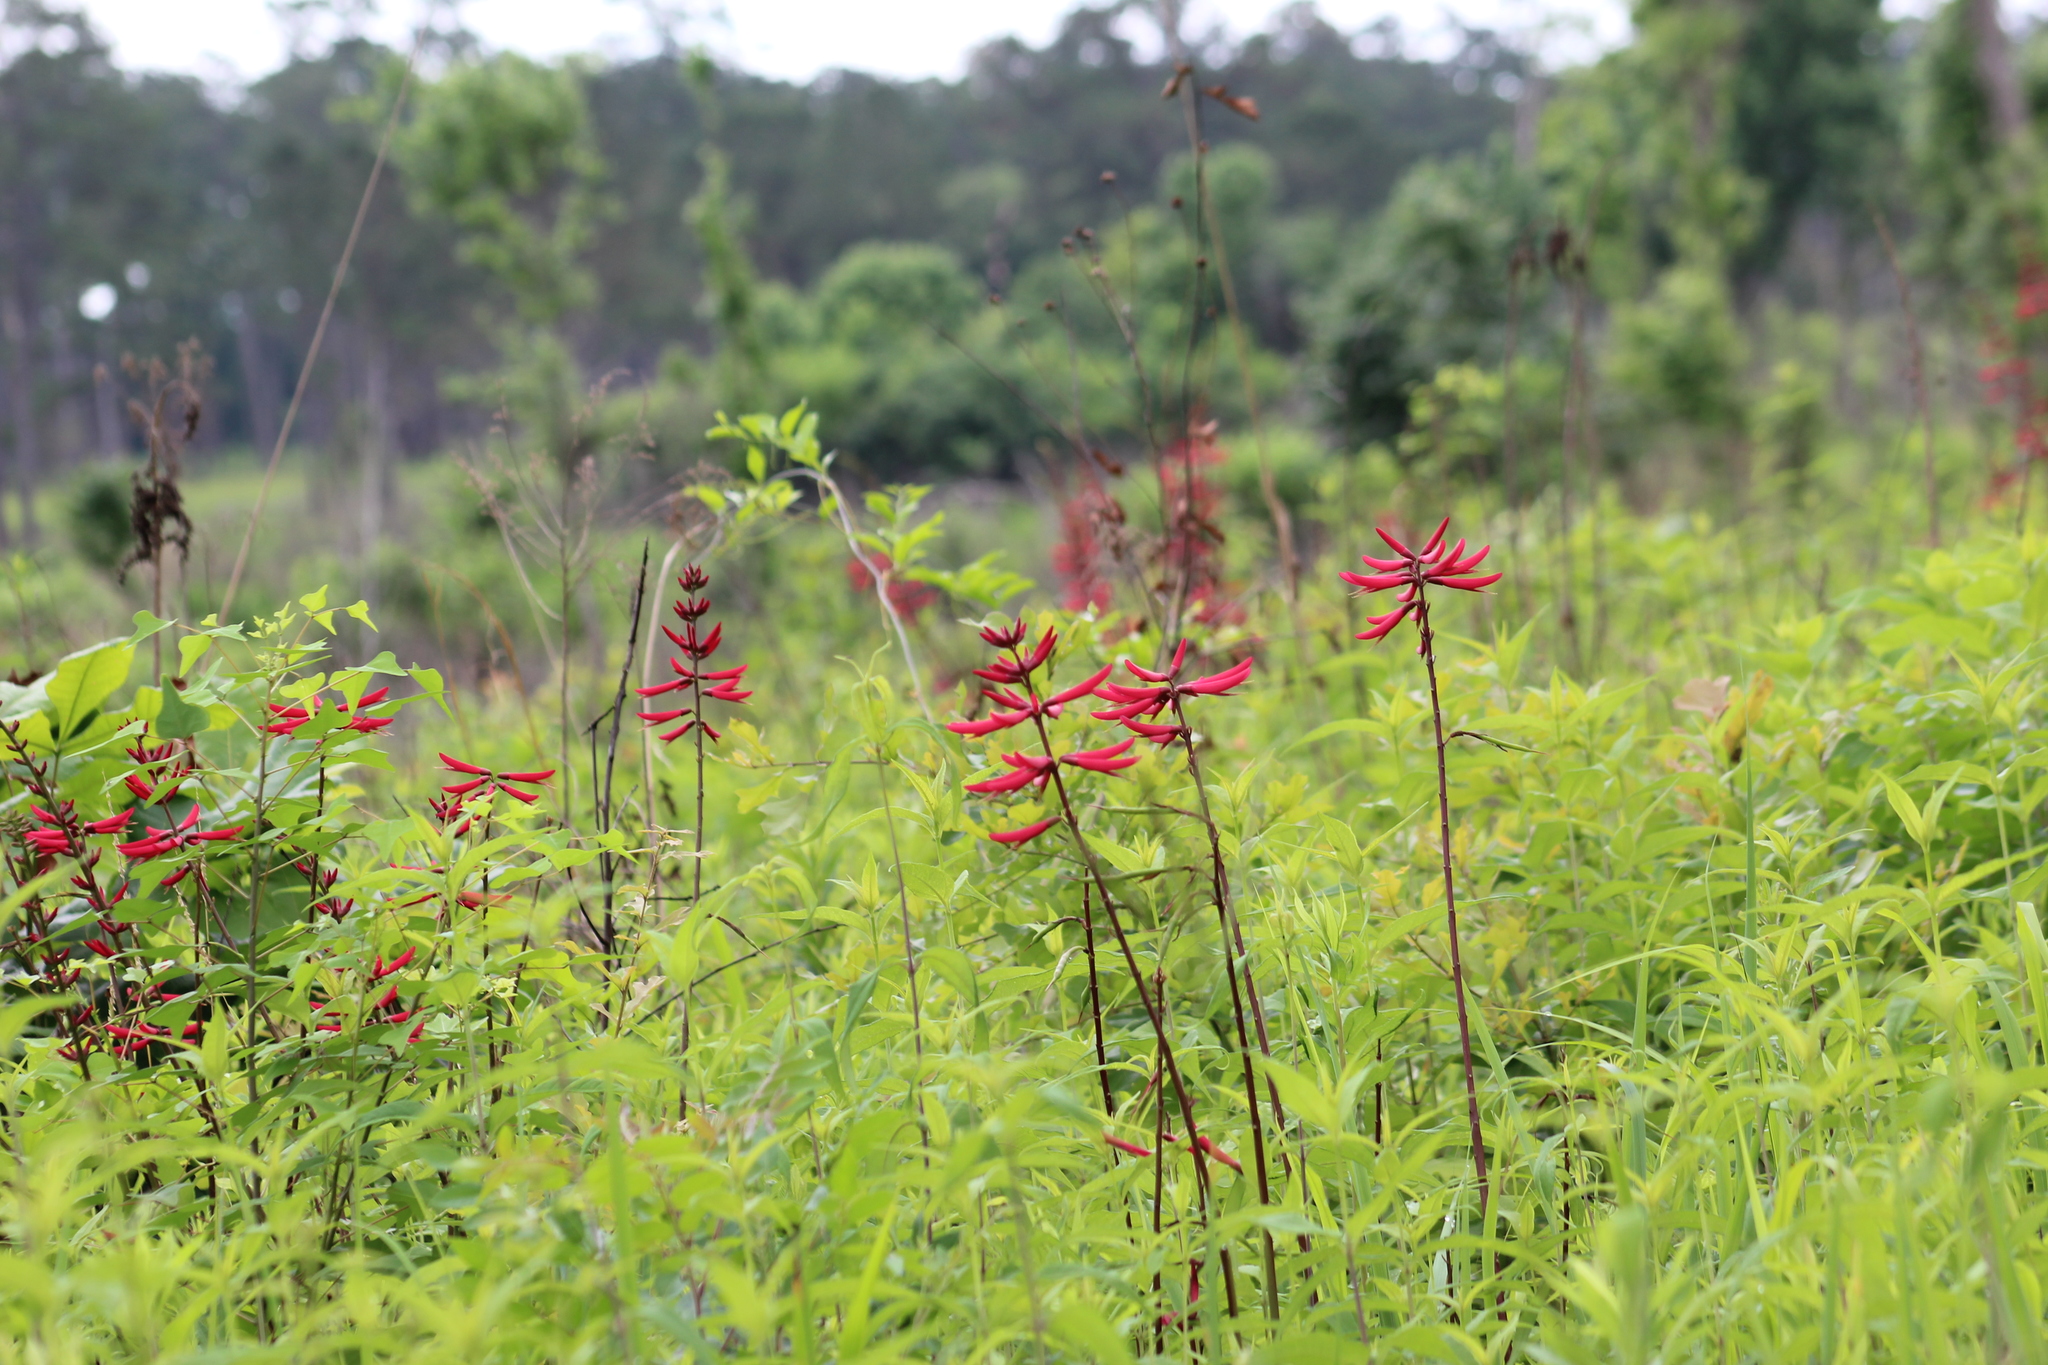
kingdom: Plantae
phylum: Tracheophyta
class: Magnoliopsida
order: Fabales
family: Fabaceae
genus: Erythrina
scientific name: Erythrina herbacea
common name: Coral-bean
